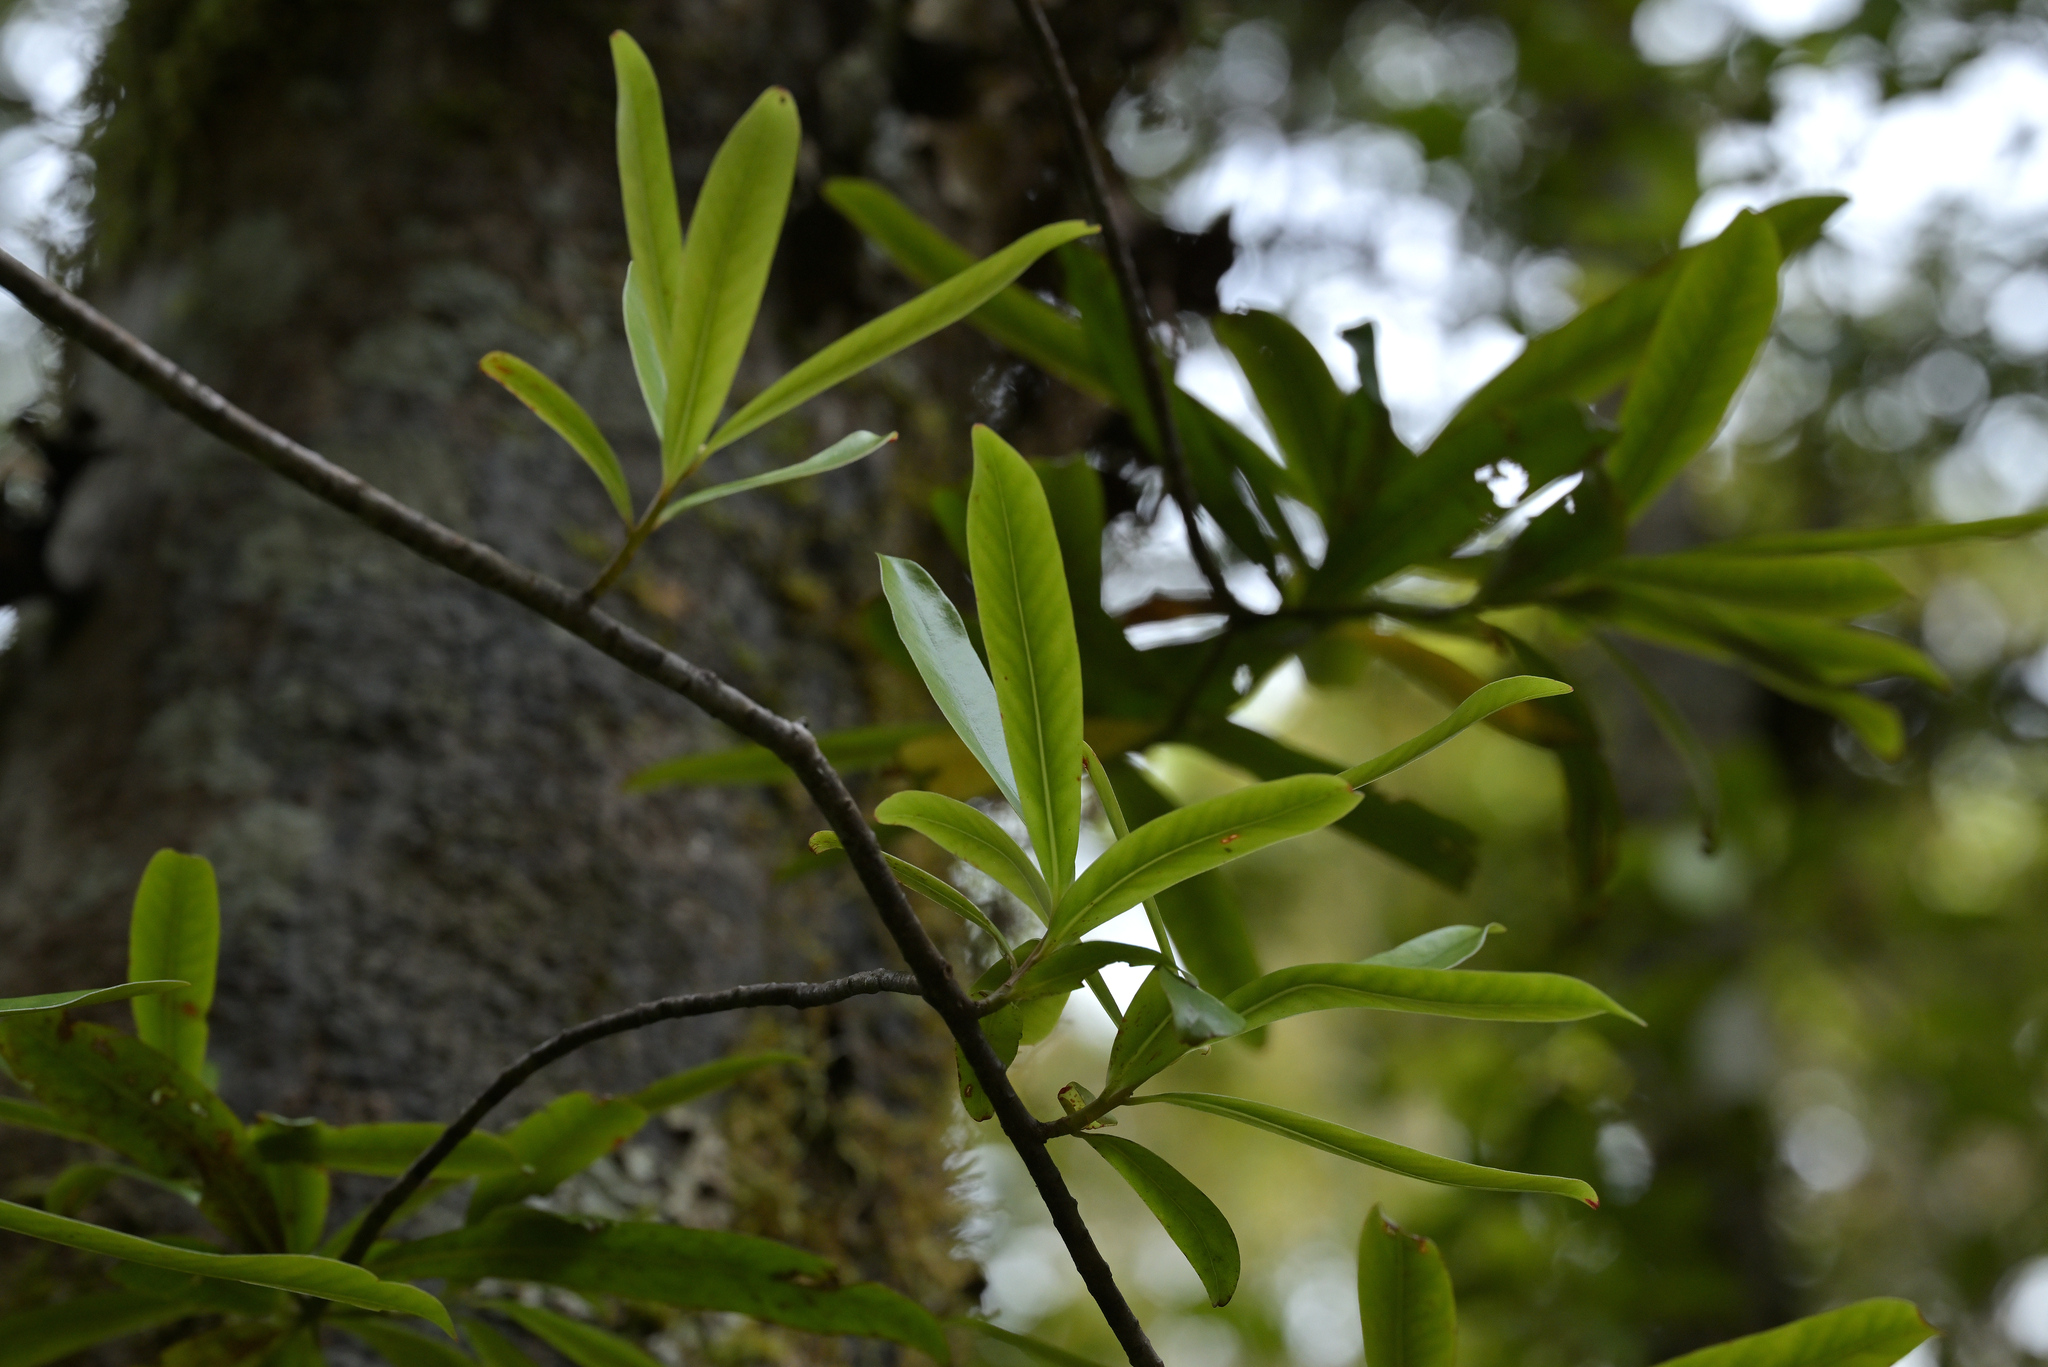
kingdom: Plantae
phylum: Tracheophyta
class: Magnoliopsida
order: Ericales
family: Primulaceae
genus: Myrsine
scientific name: Myrsine salicina
